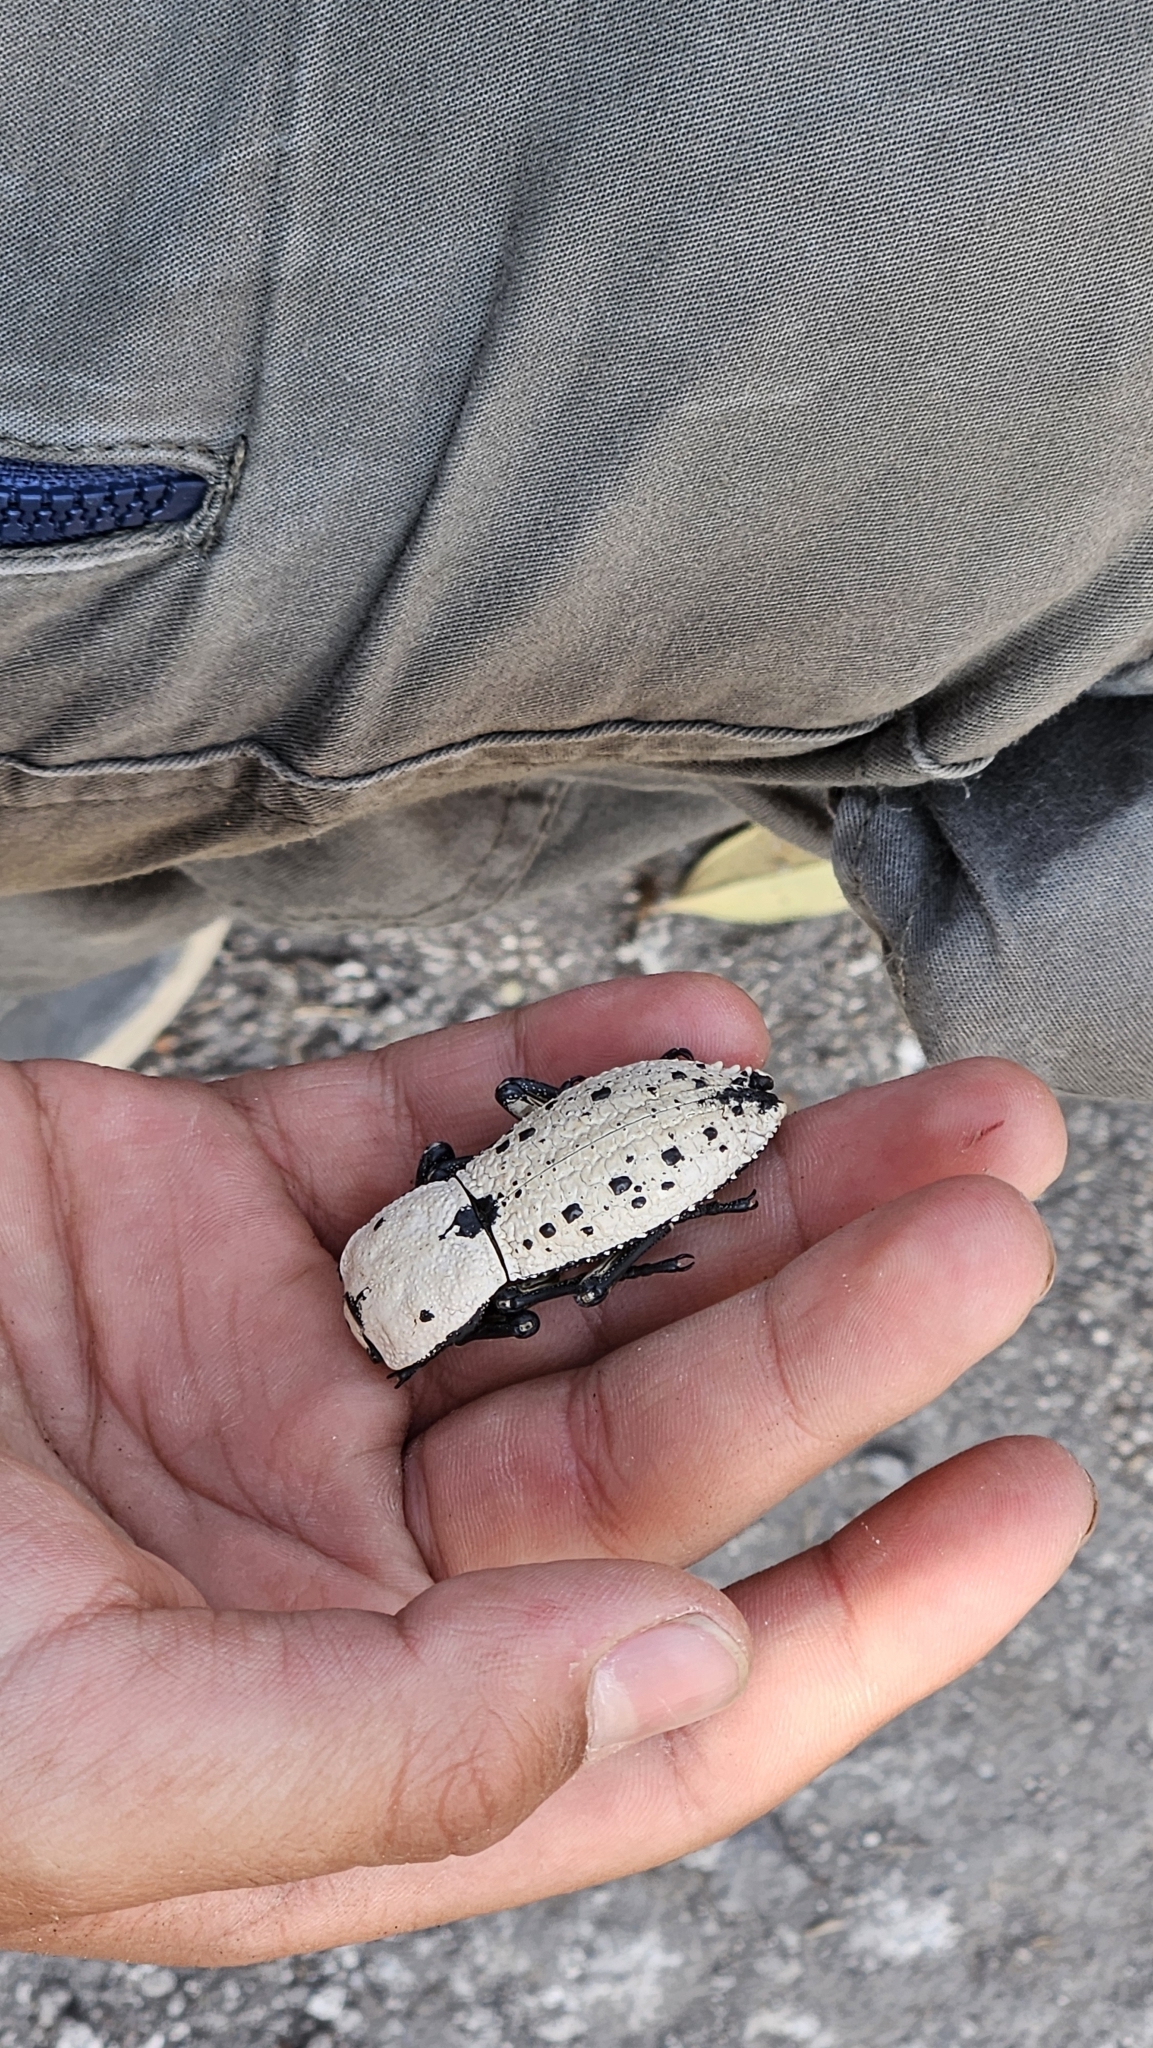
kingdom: Animalia
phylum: Arthropoda
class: Insecta
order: Coleoptera
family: Zopheridae
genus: Zopherus
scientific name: Zopherus
